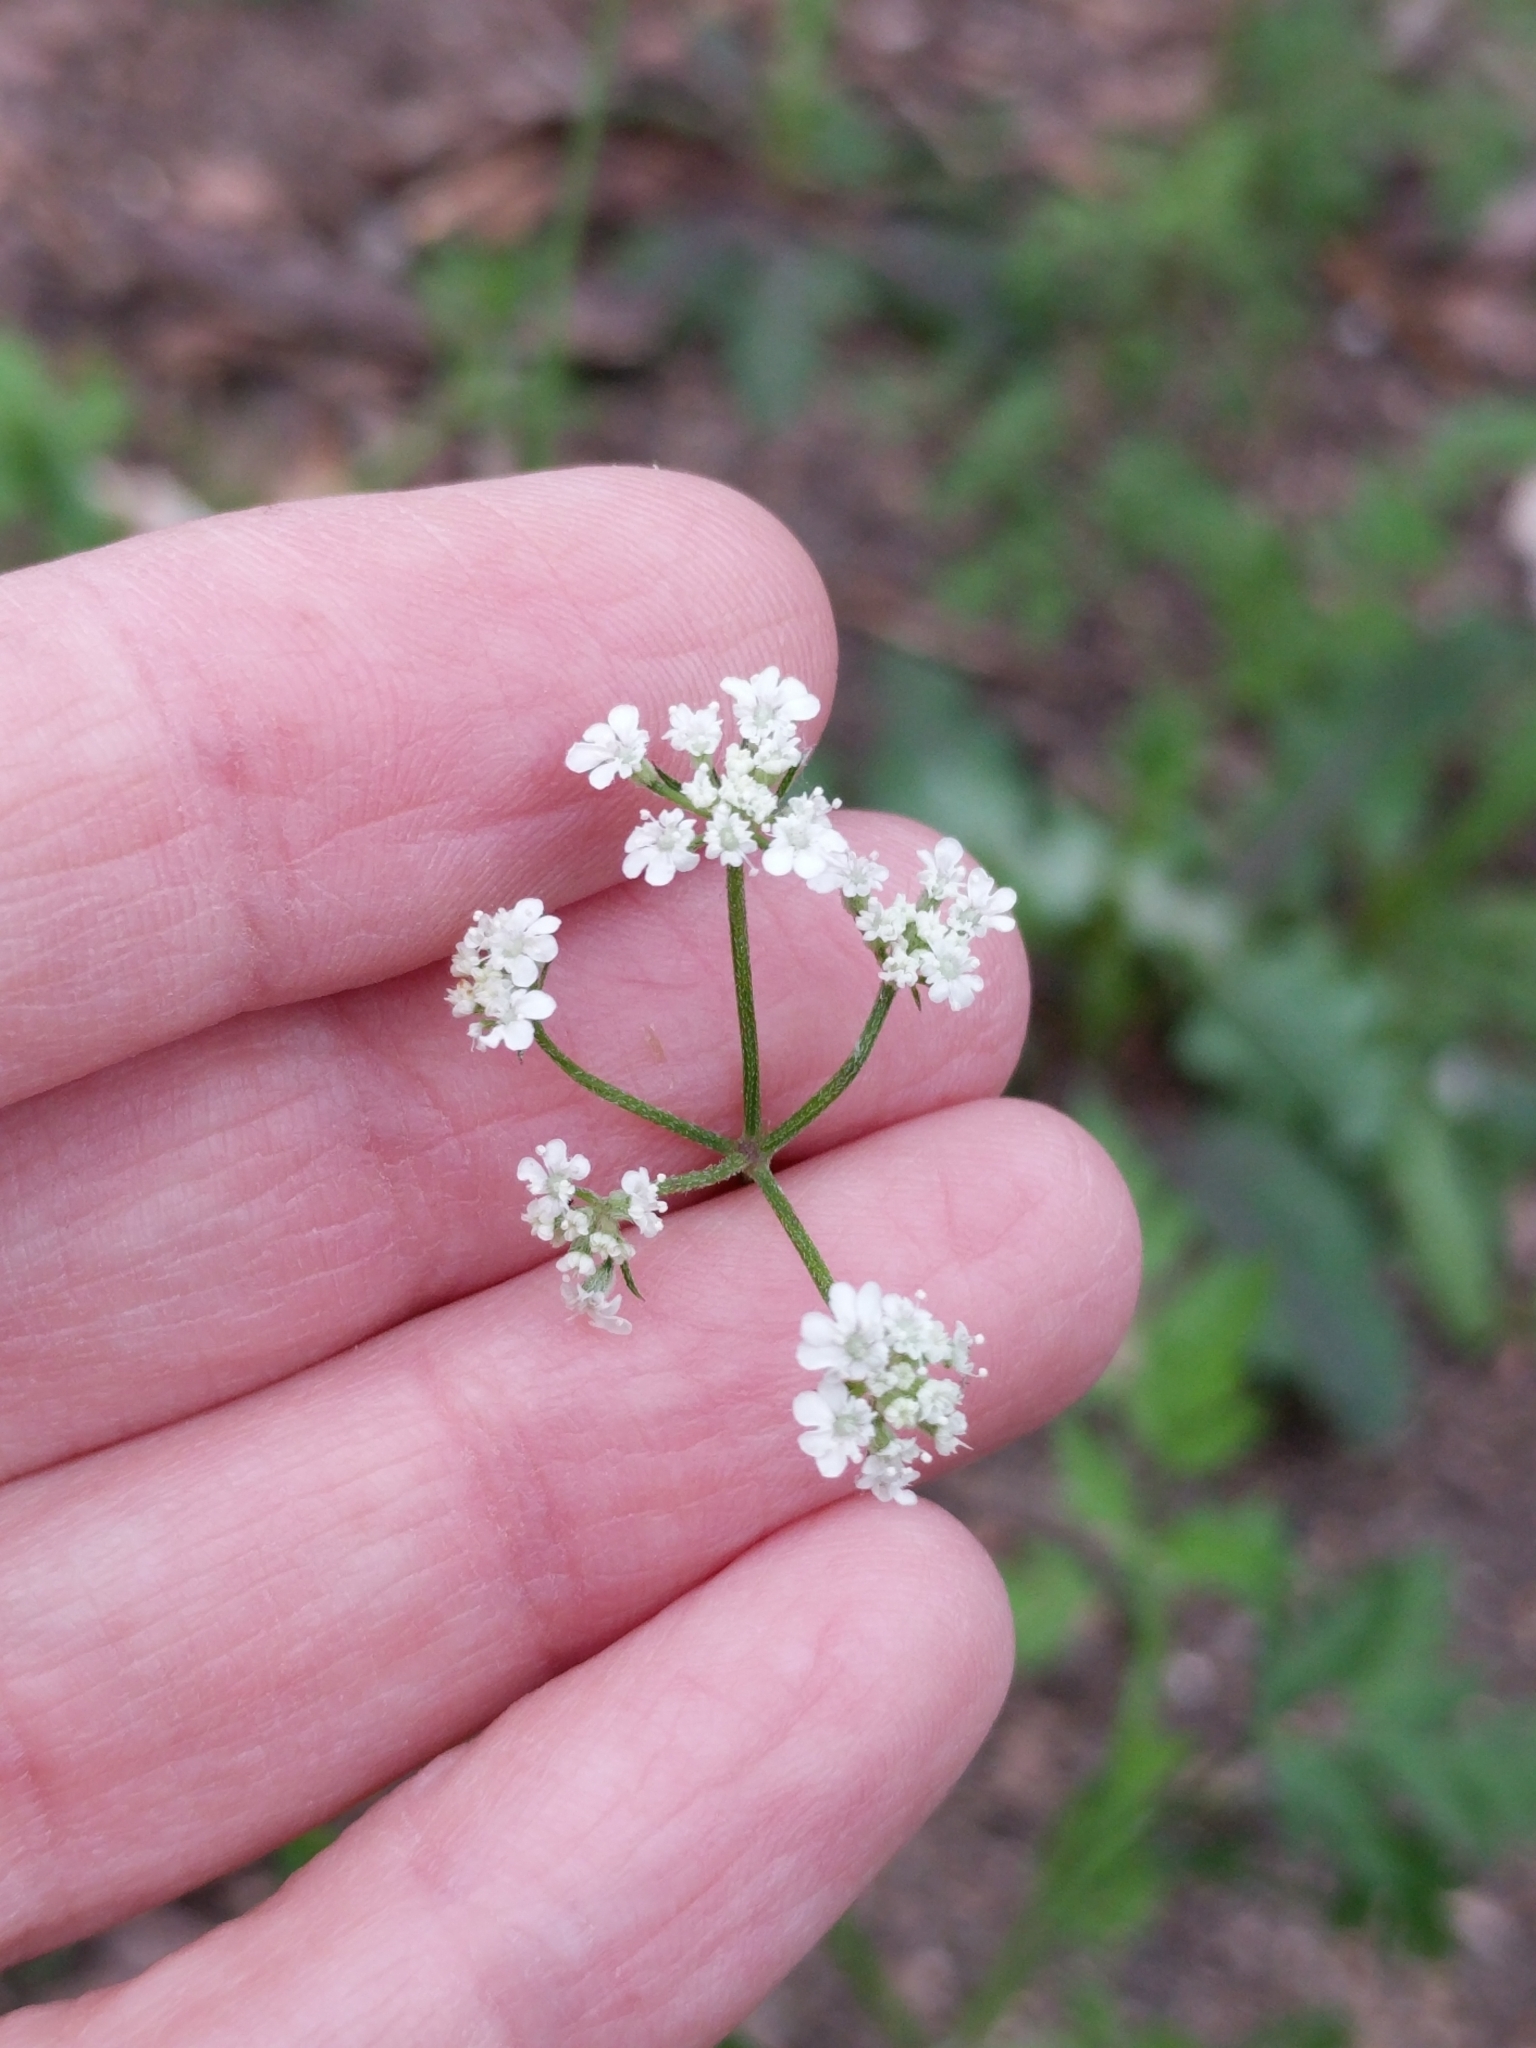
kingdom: Plantae
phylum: Tracheophyta
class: Magnoliopsida
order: Apiales
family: Apiaceae
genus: Torilis
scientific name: Torilis arvensis
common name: Spreading hedge-parsley
